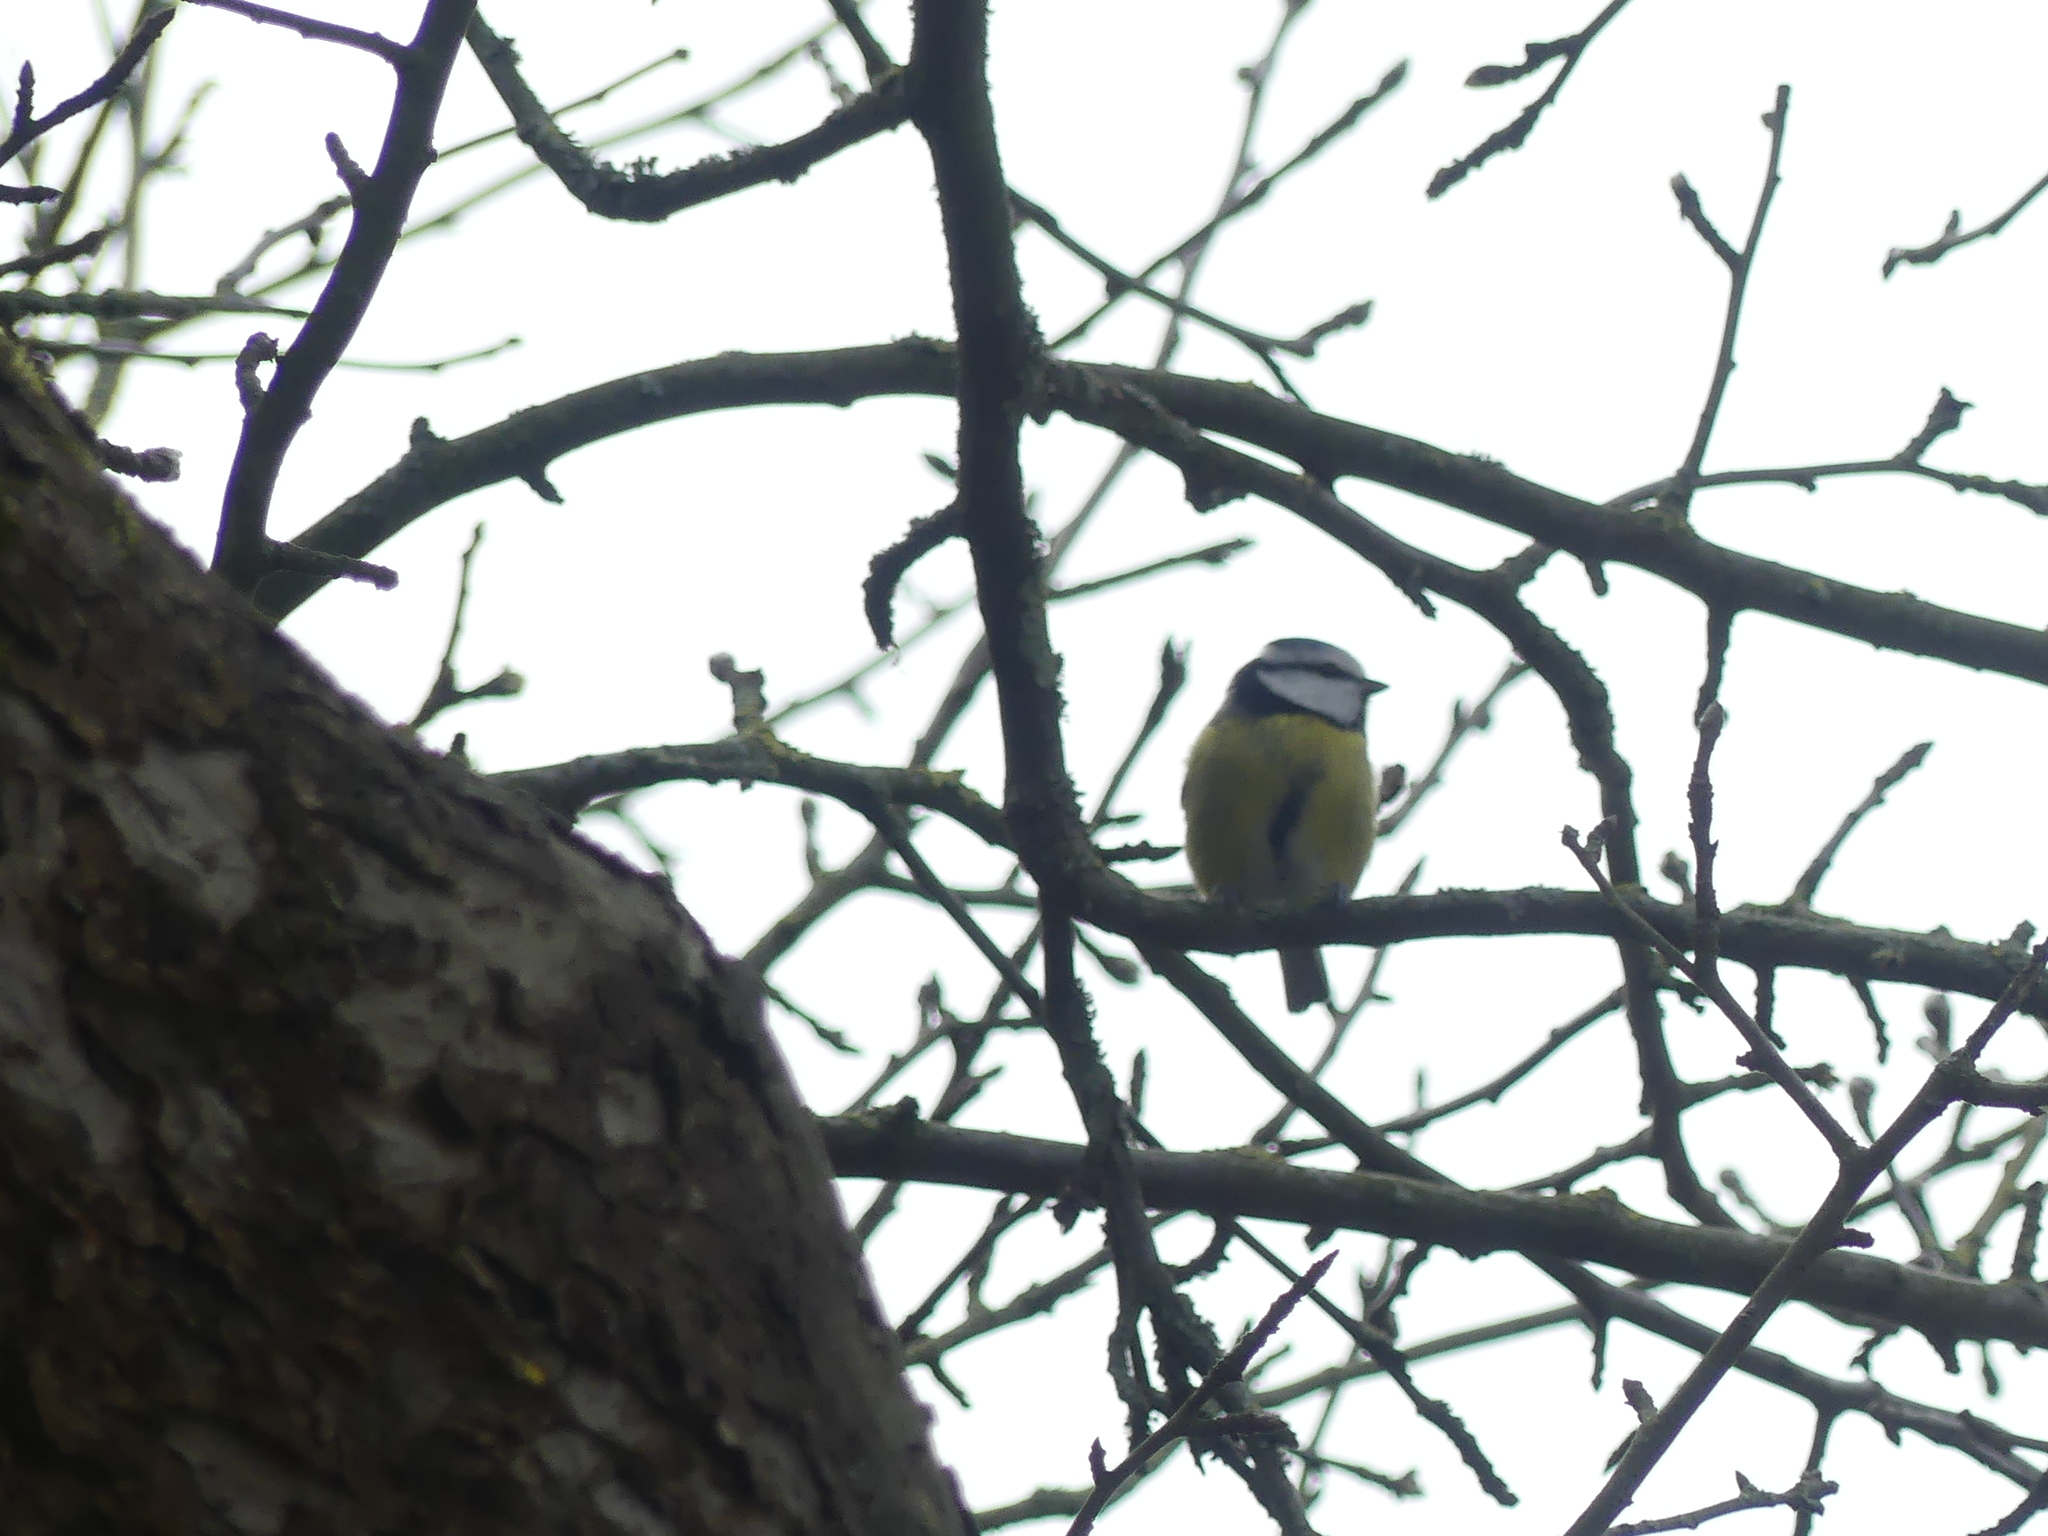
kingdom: Animalia
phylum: Chordata
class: Aves
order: Passeriformes
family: Paridae
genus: Cyanistes
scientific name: Cyanistes caeruleus
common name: Eurasian blue tit
